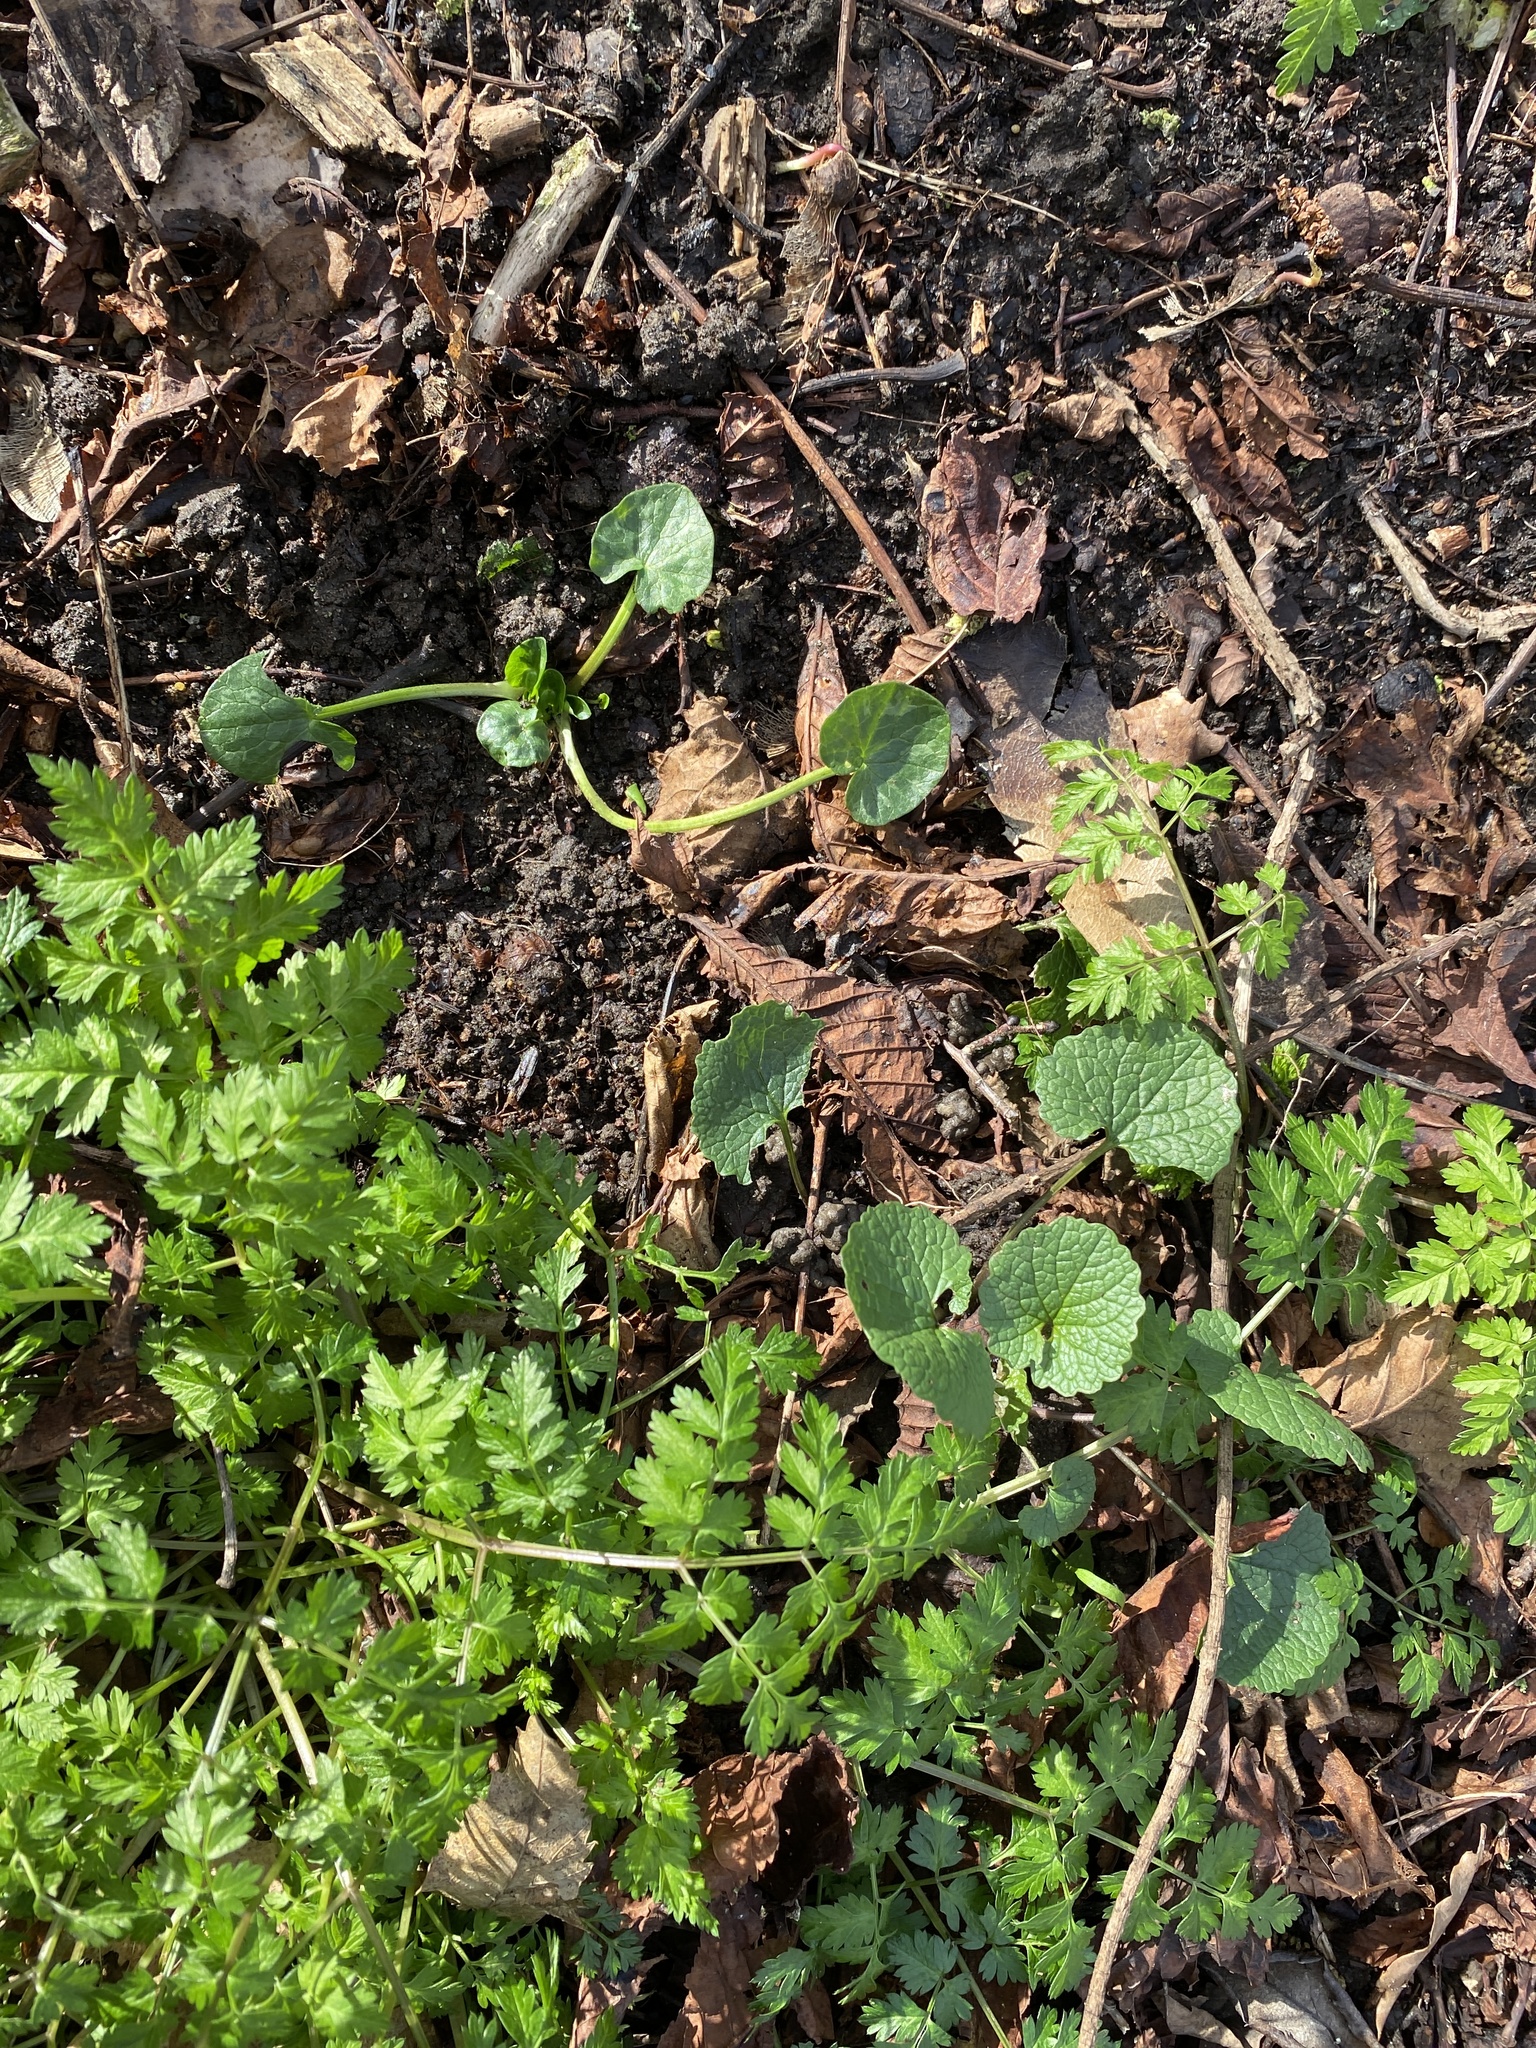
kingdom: Plantae
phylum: Tracheophyta
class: Magnoliopsida
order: Ranunculales
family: Ranunculaceae
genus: Ficaria
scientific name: Ficaria verna
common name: Lesser celandine
